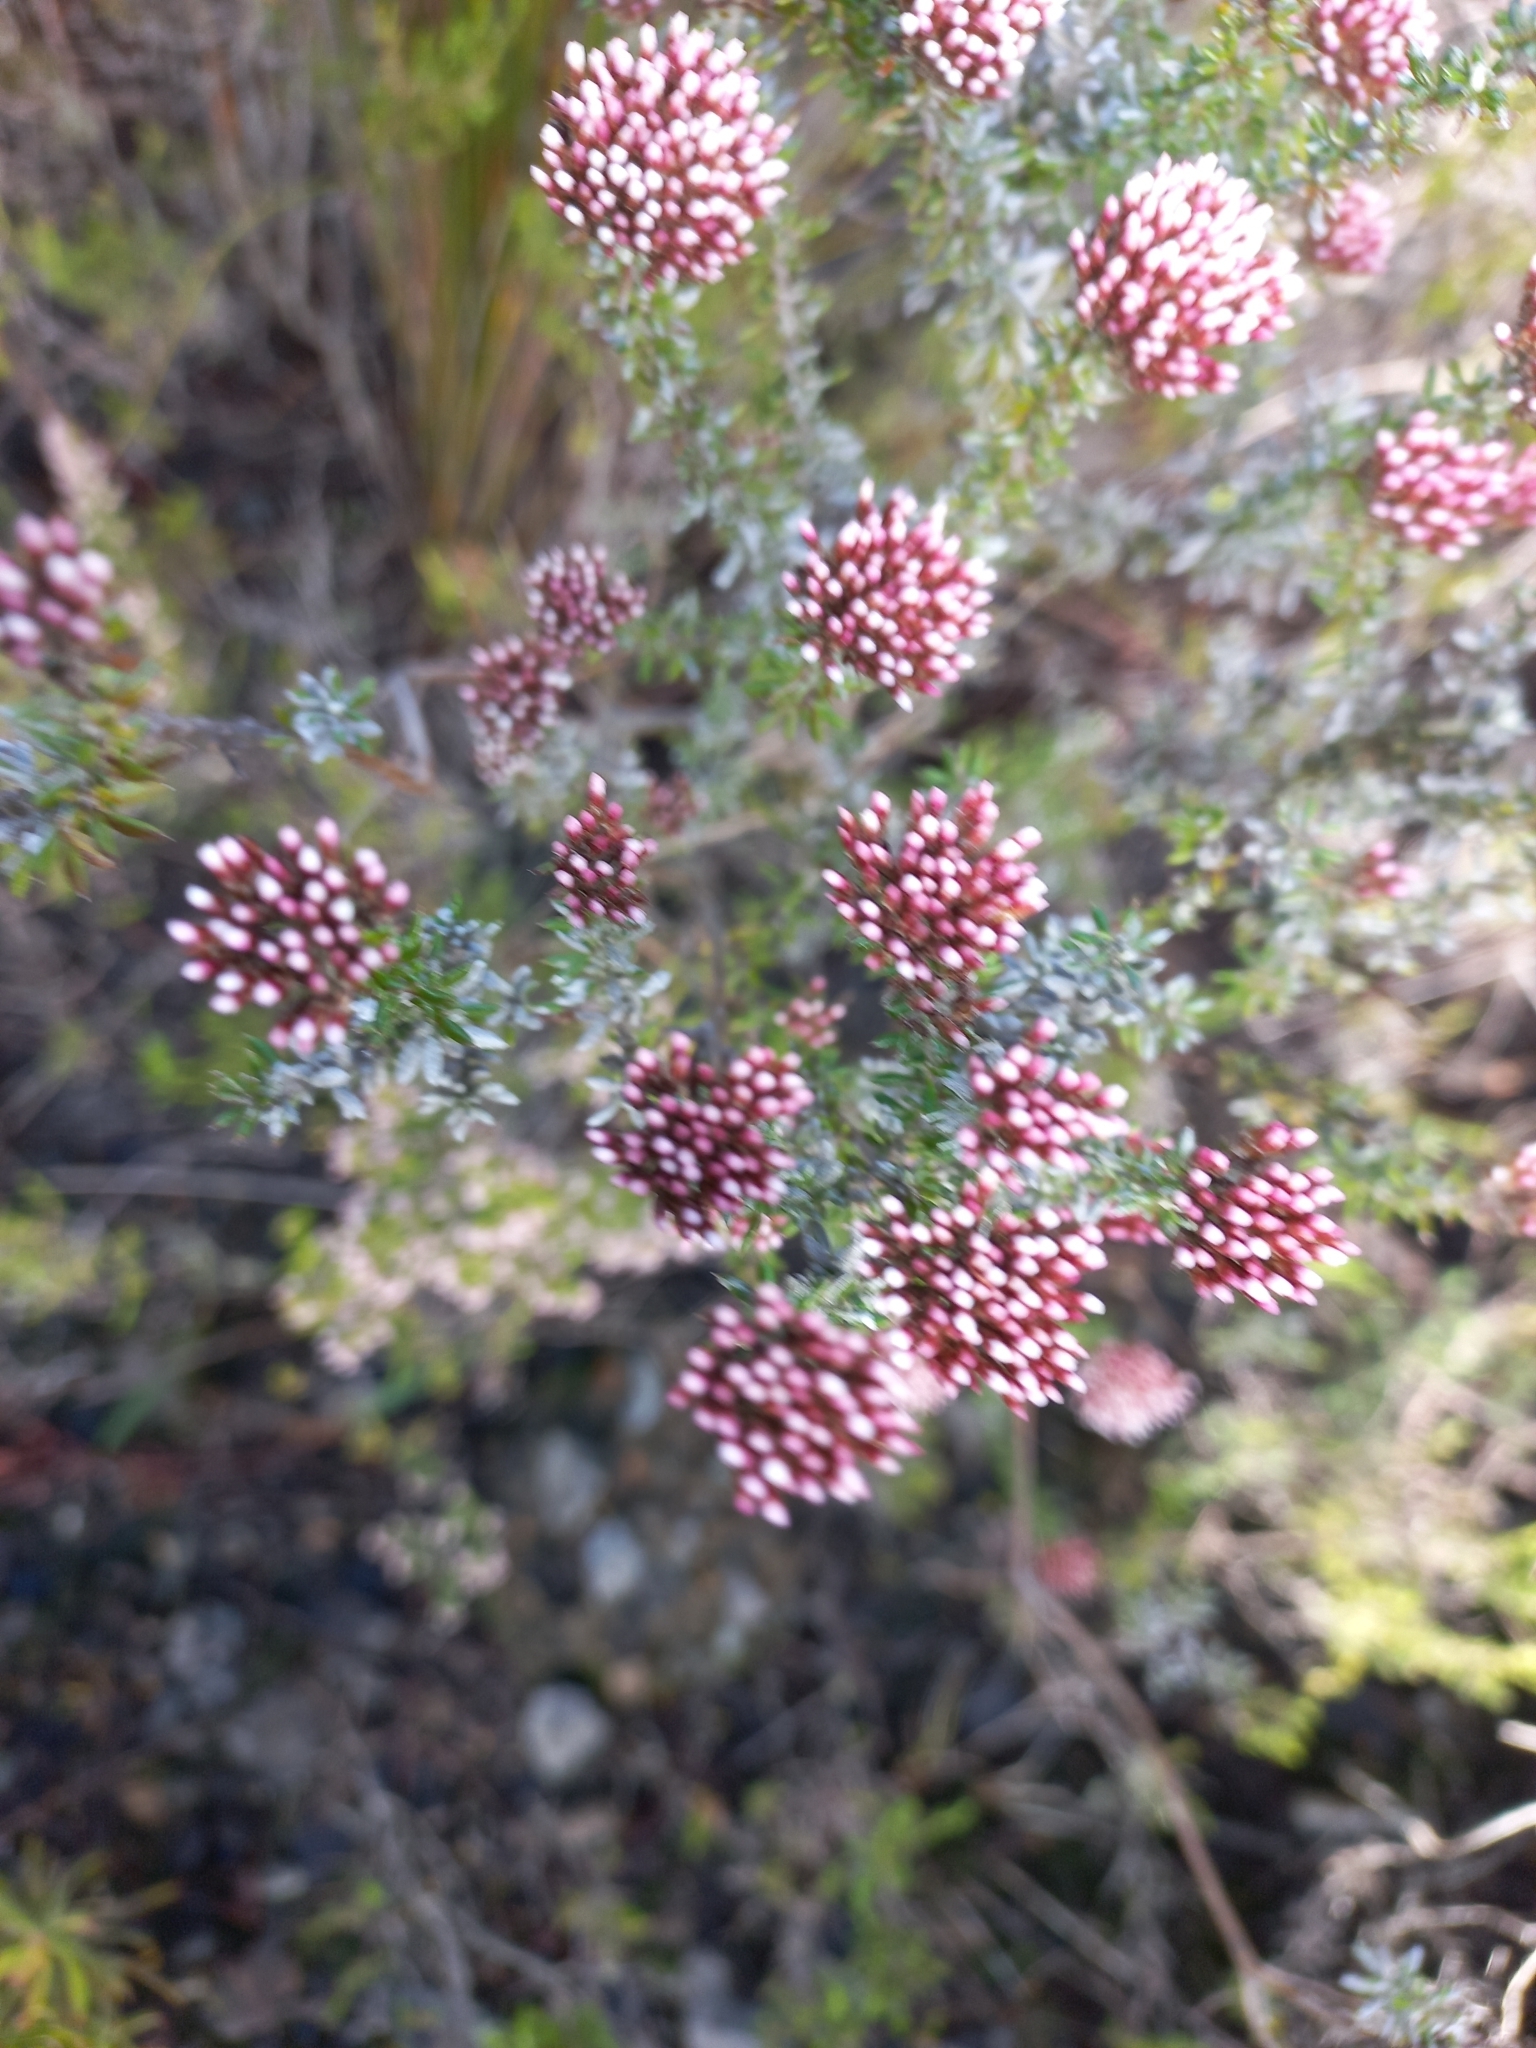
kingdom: Plantae
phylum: Tracheophyta
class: Magnoliopsida
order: Asterales
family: Asteraceae
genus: Metalasia
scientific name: Metalasia densa
